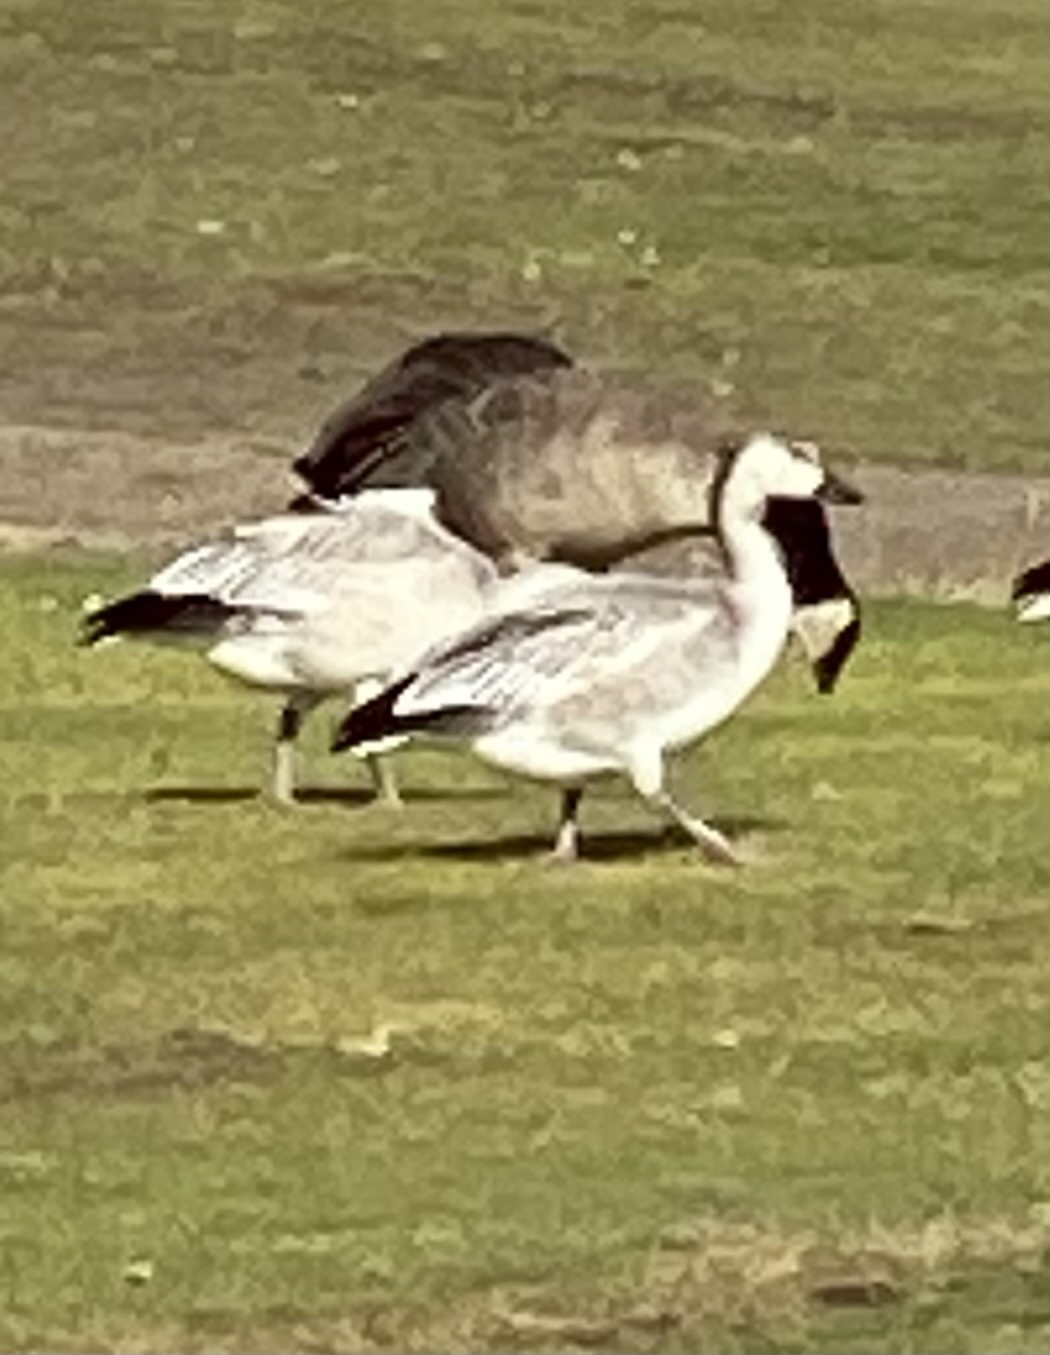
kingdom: Animalia
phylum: Chordata
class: Aves
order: Anseriformes
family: Anatidae
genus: Anser
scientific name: Anser caerulescens
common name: Snow goose
